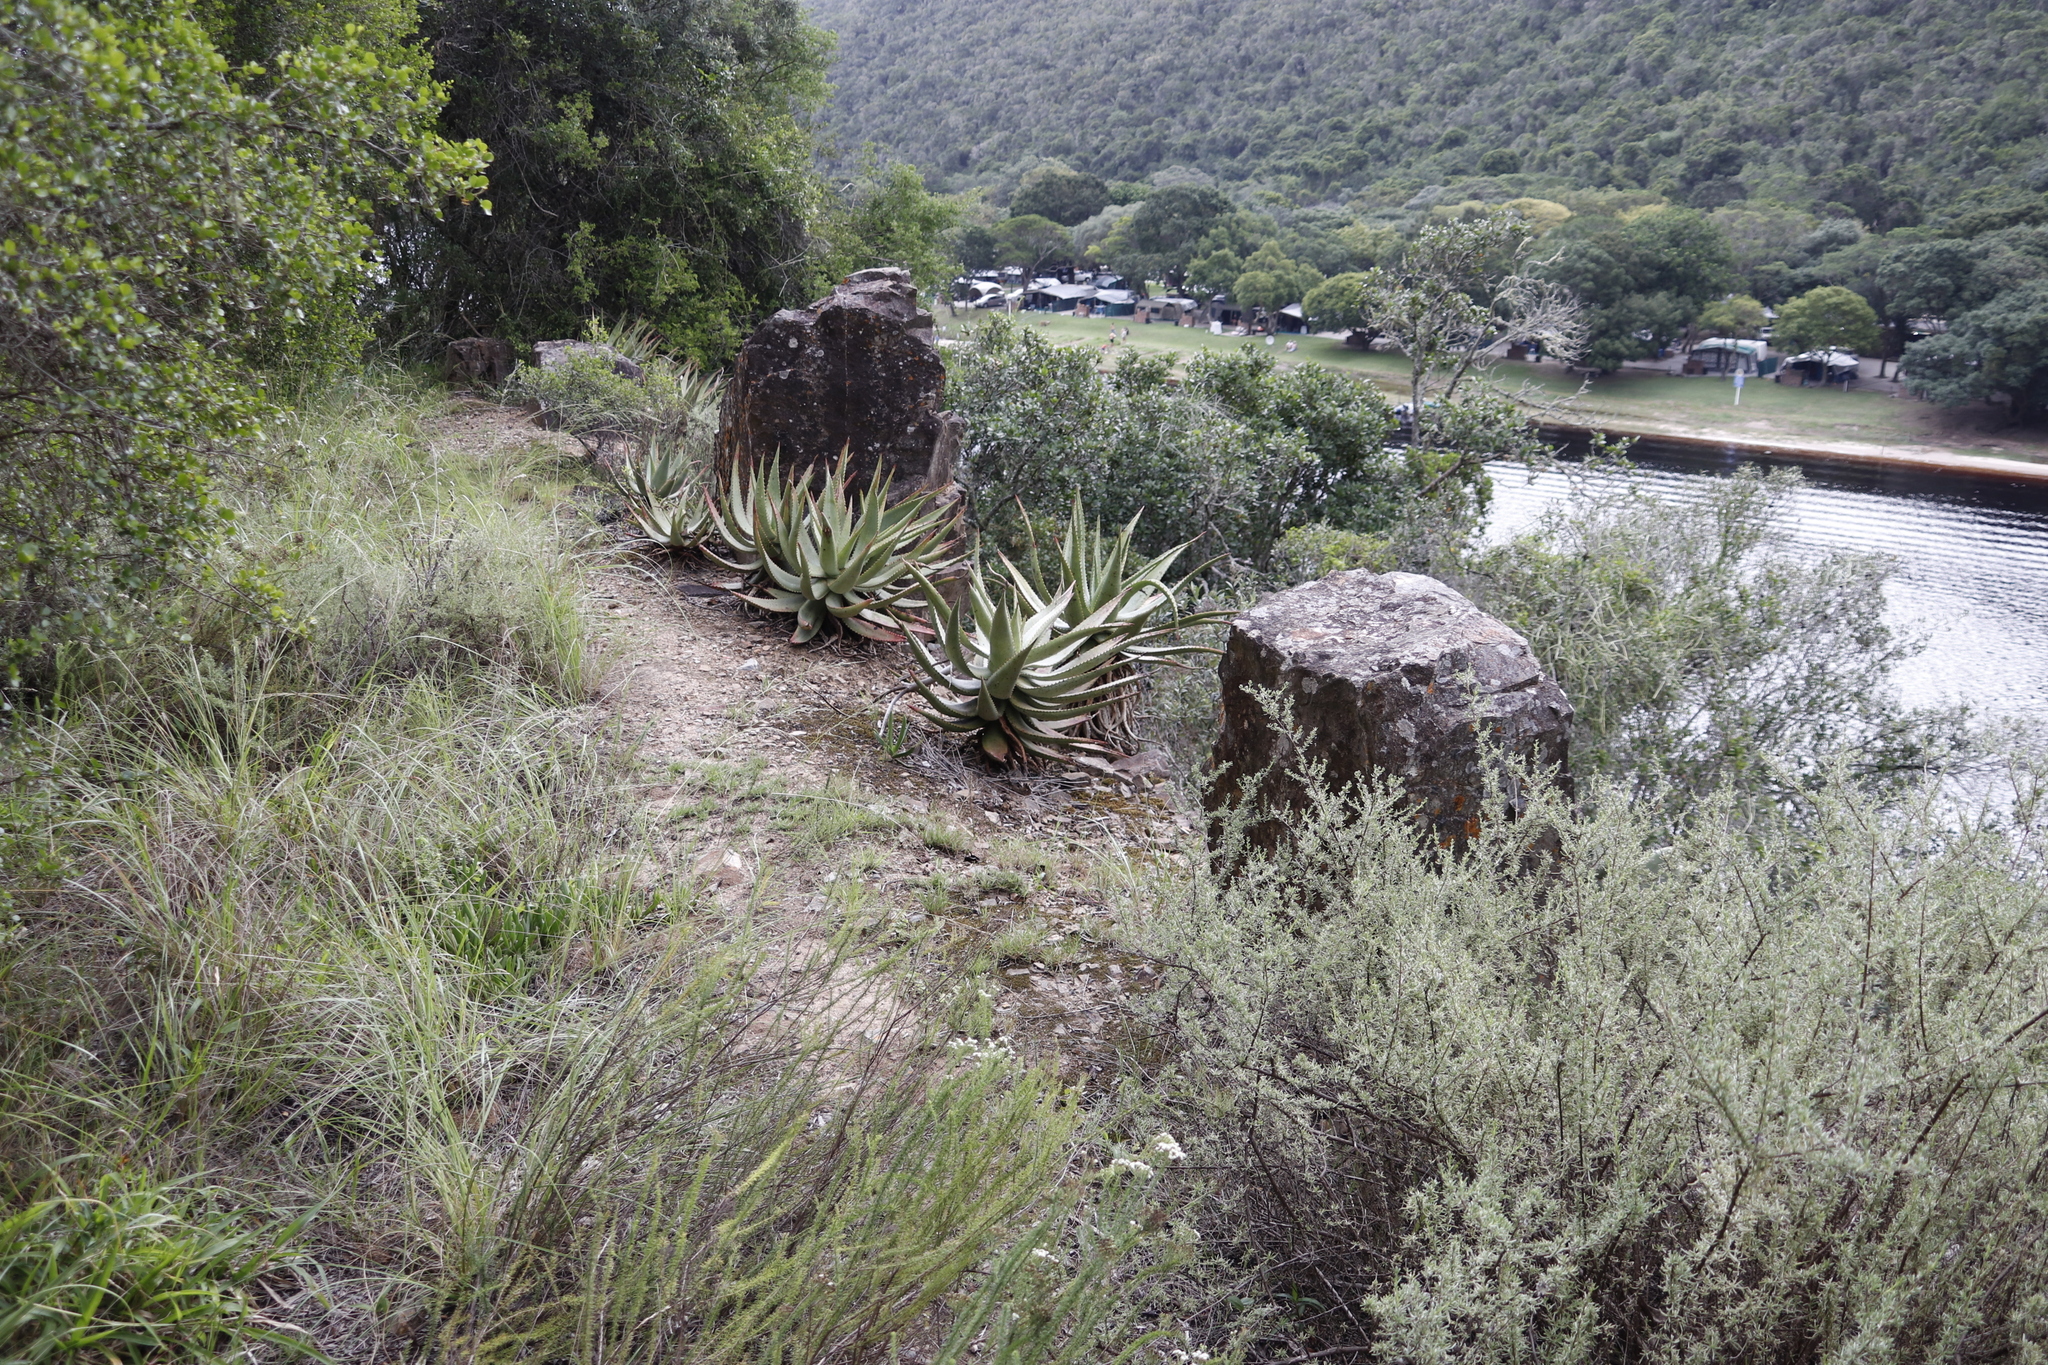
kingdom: Plantae
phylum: Tracheophyta
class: Liliopsida
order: Asparagales
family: Asphodelaceae
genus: Aloe
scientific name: Aloe ferox
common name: Bitter aloe
